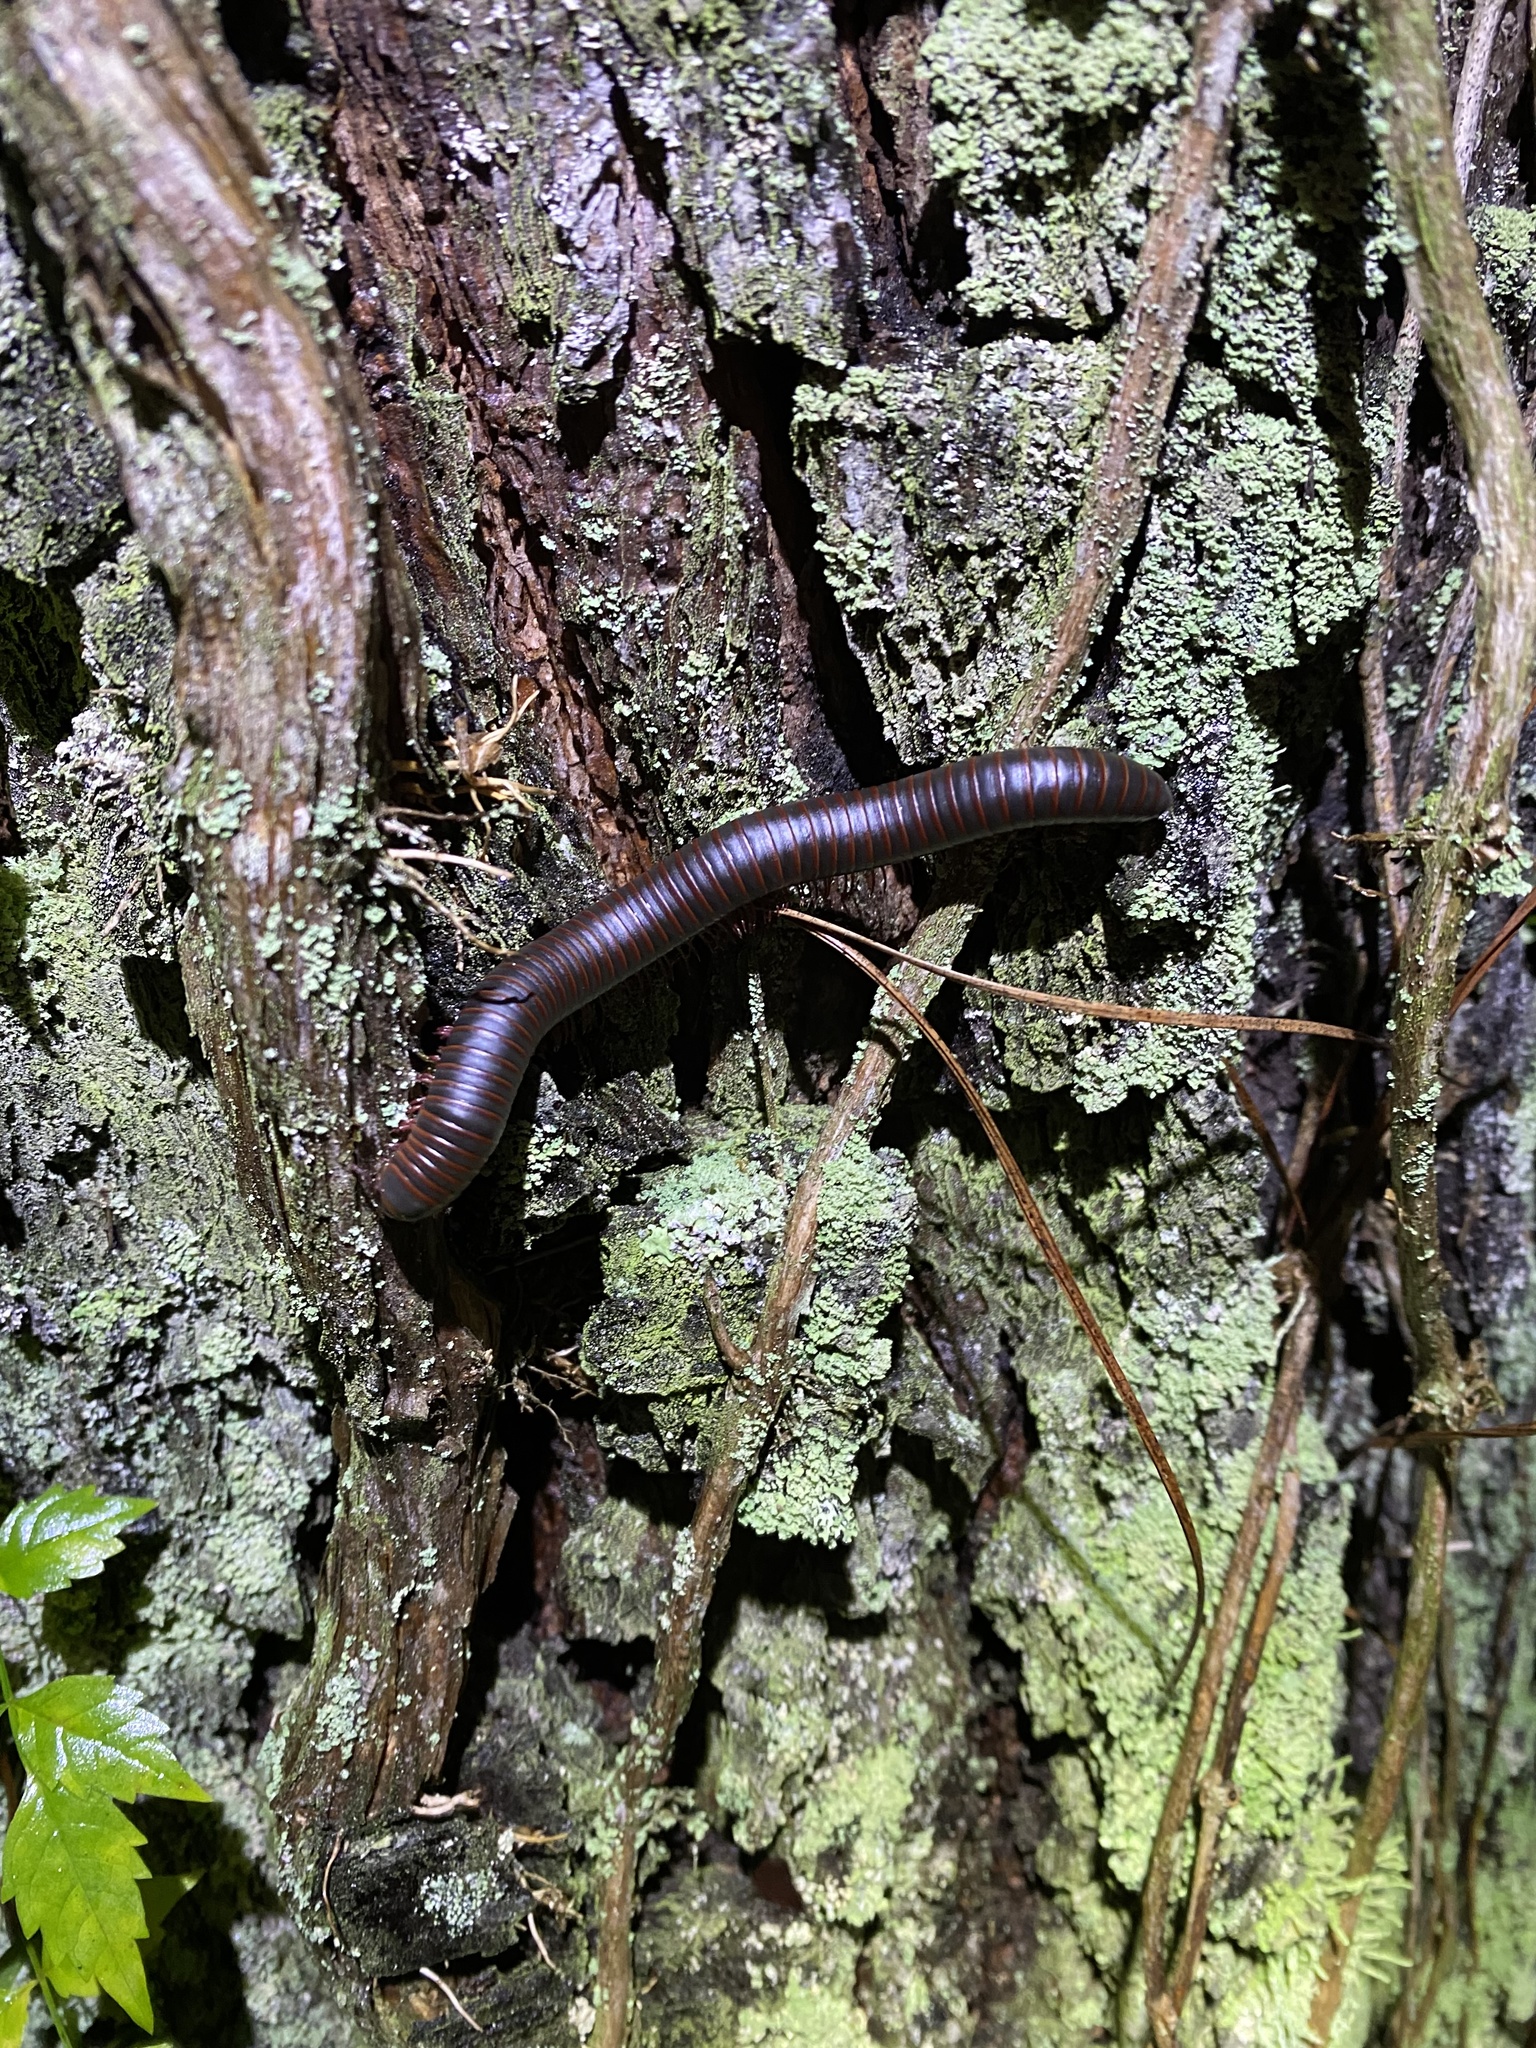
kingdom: Animalia
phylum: Arthropoda
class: Diplopoda
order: Spirobolida
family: Spirobolidae
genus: Narceus
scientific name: Narceus
